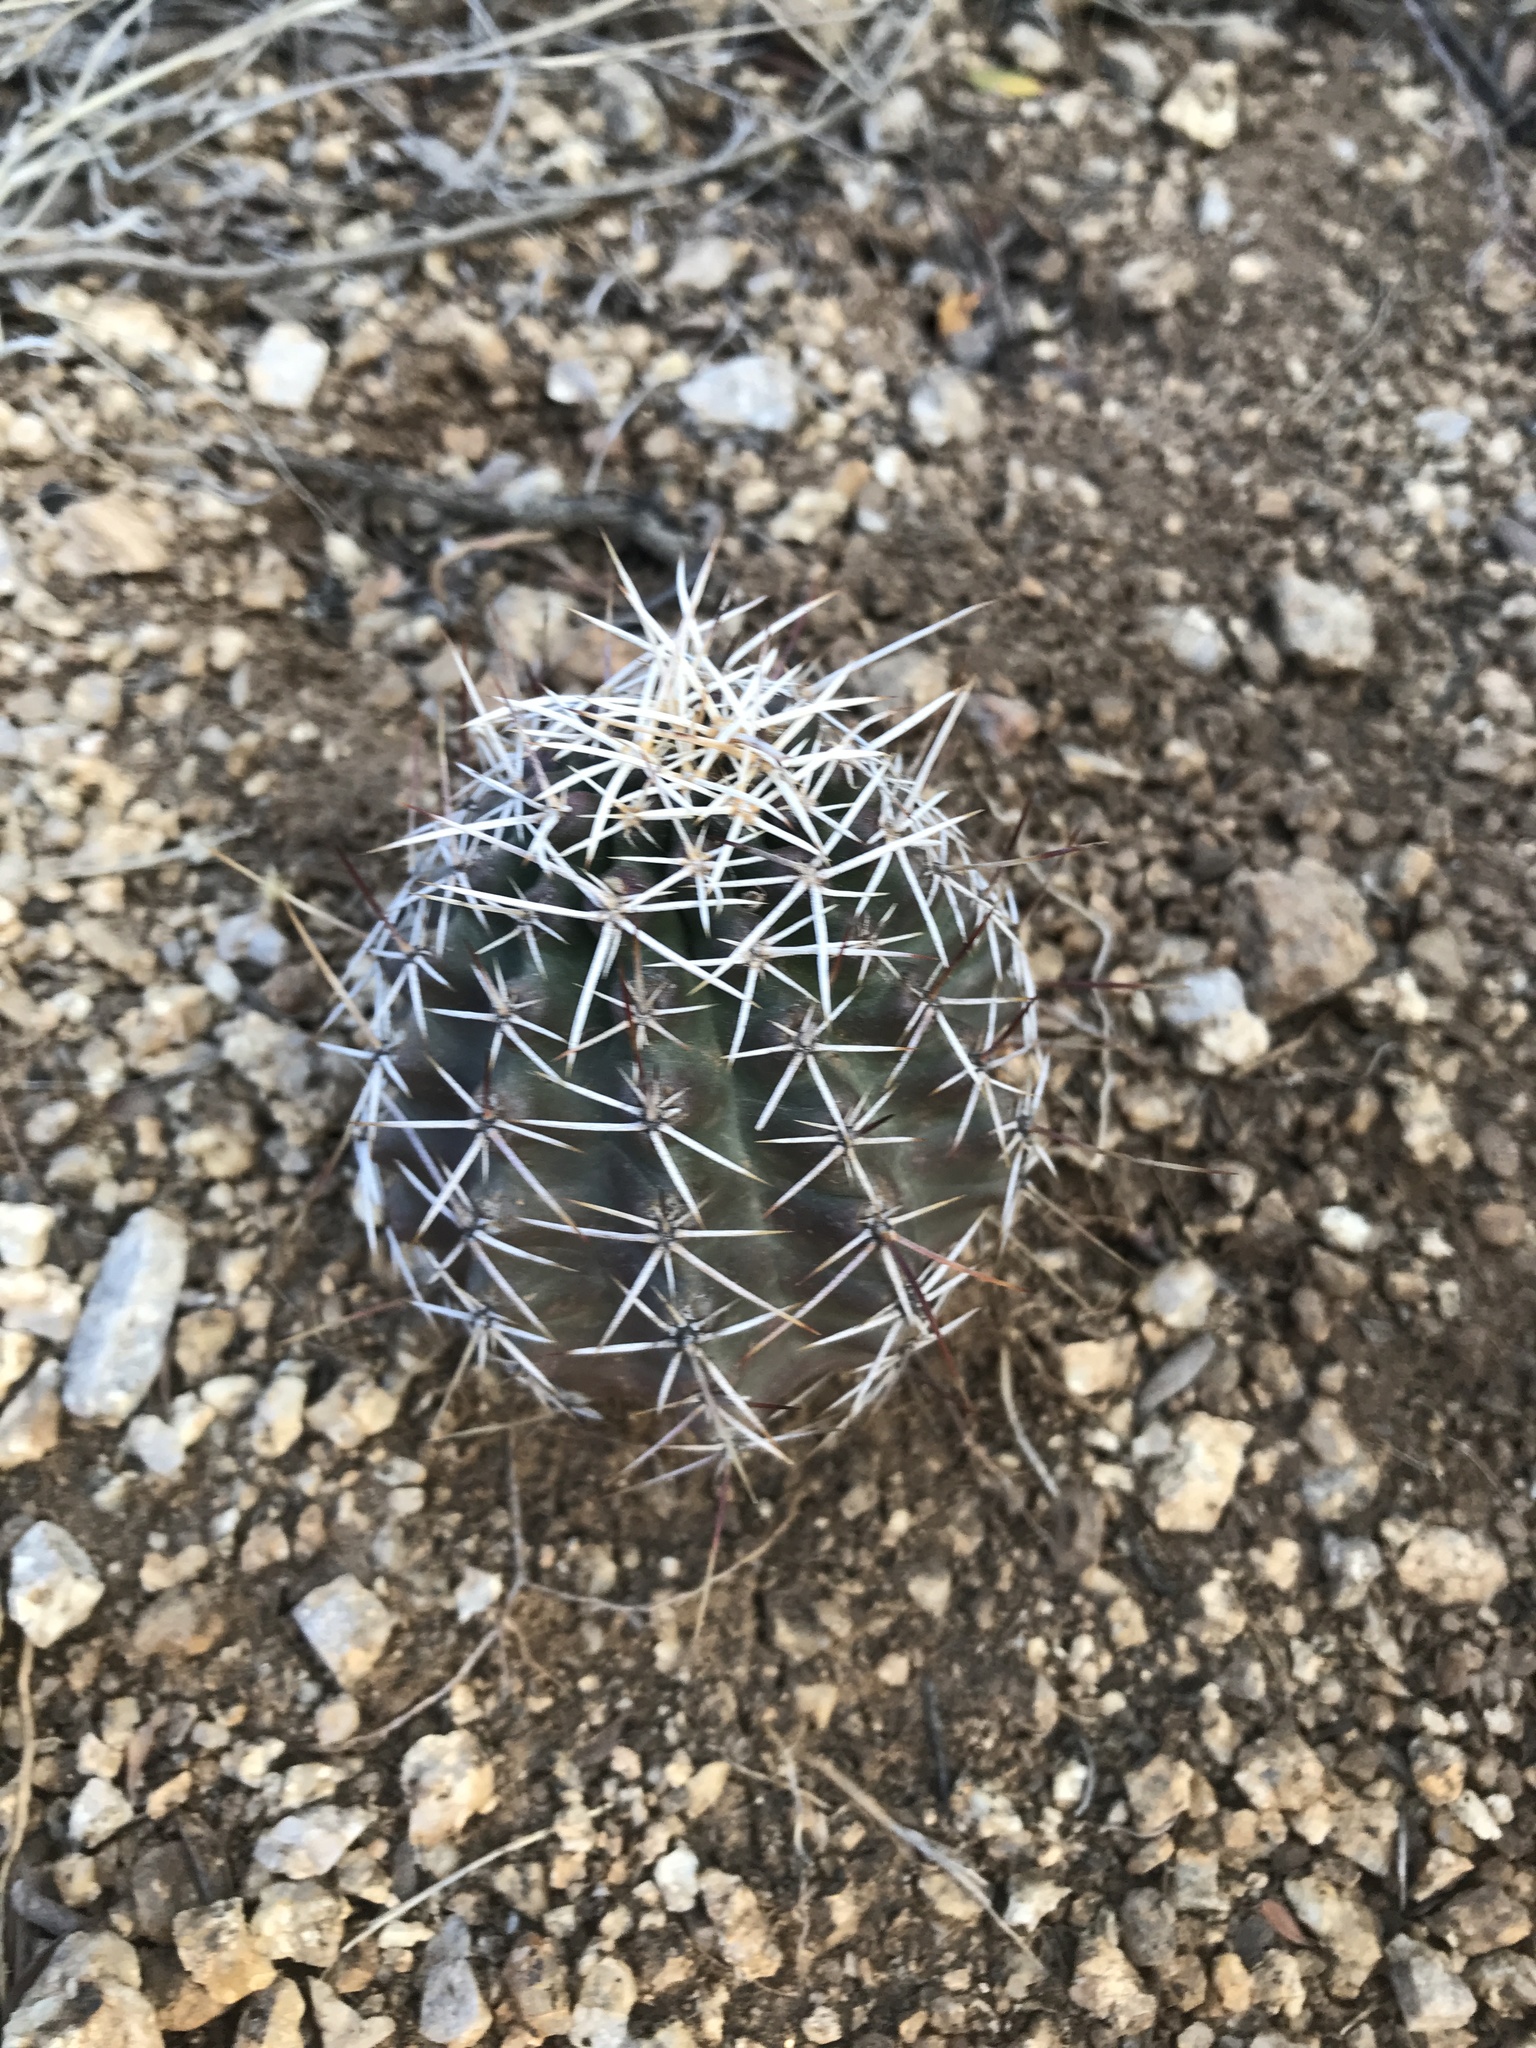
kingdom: Plantae
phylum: Tracheophyta
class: Magnoliopsida
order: Caryophyllales
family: Cactaceae
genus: Echinocereus
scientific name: Echinocereus fendleri
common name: Fendler's hedgehog cactus
